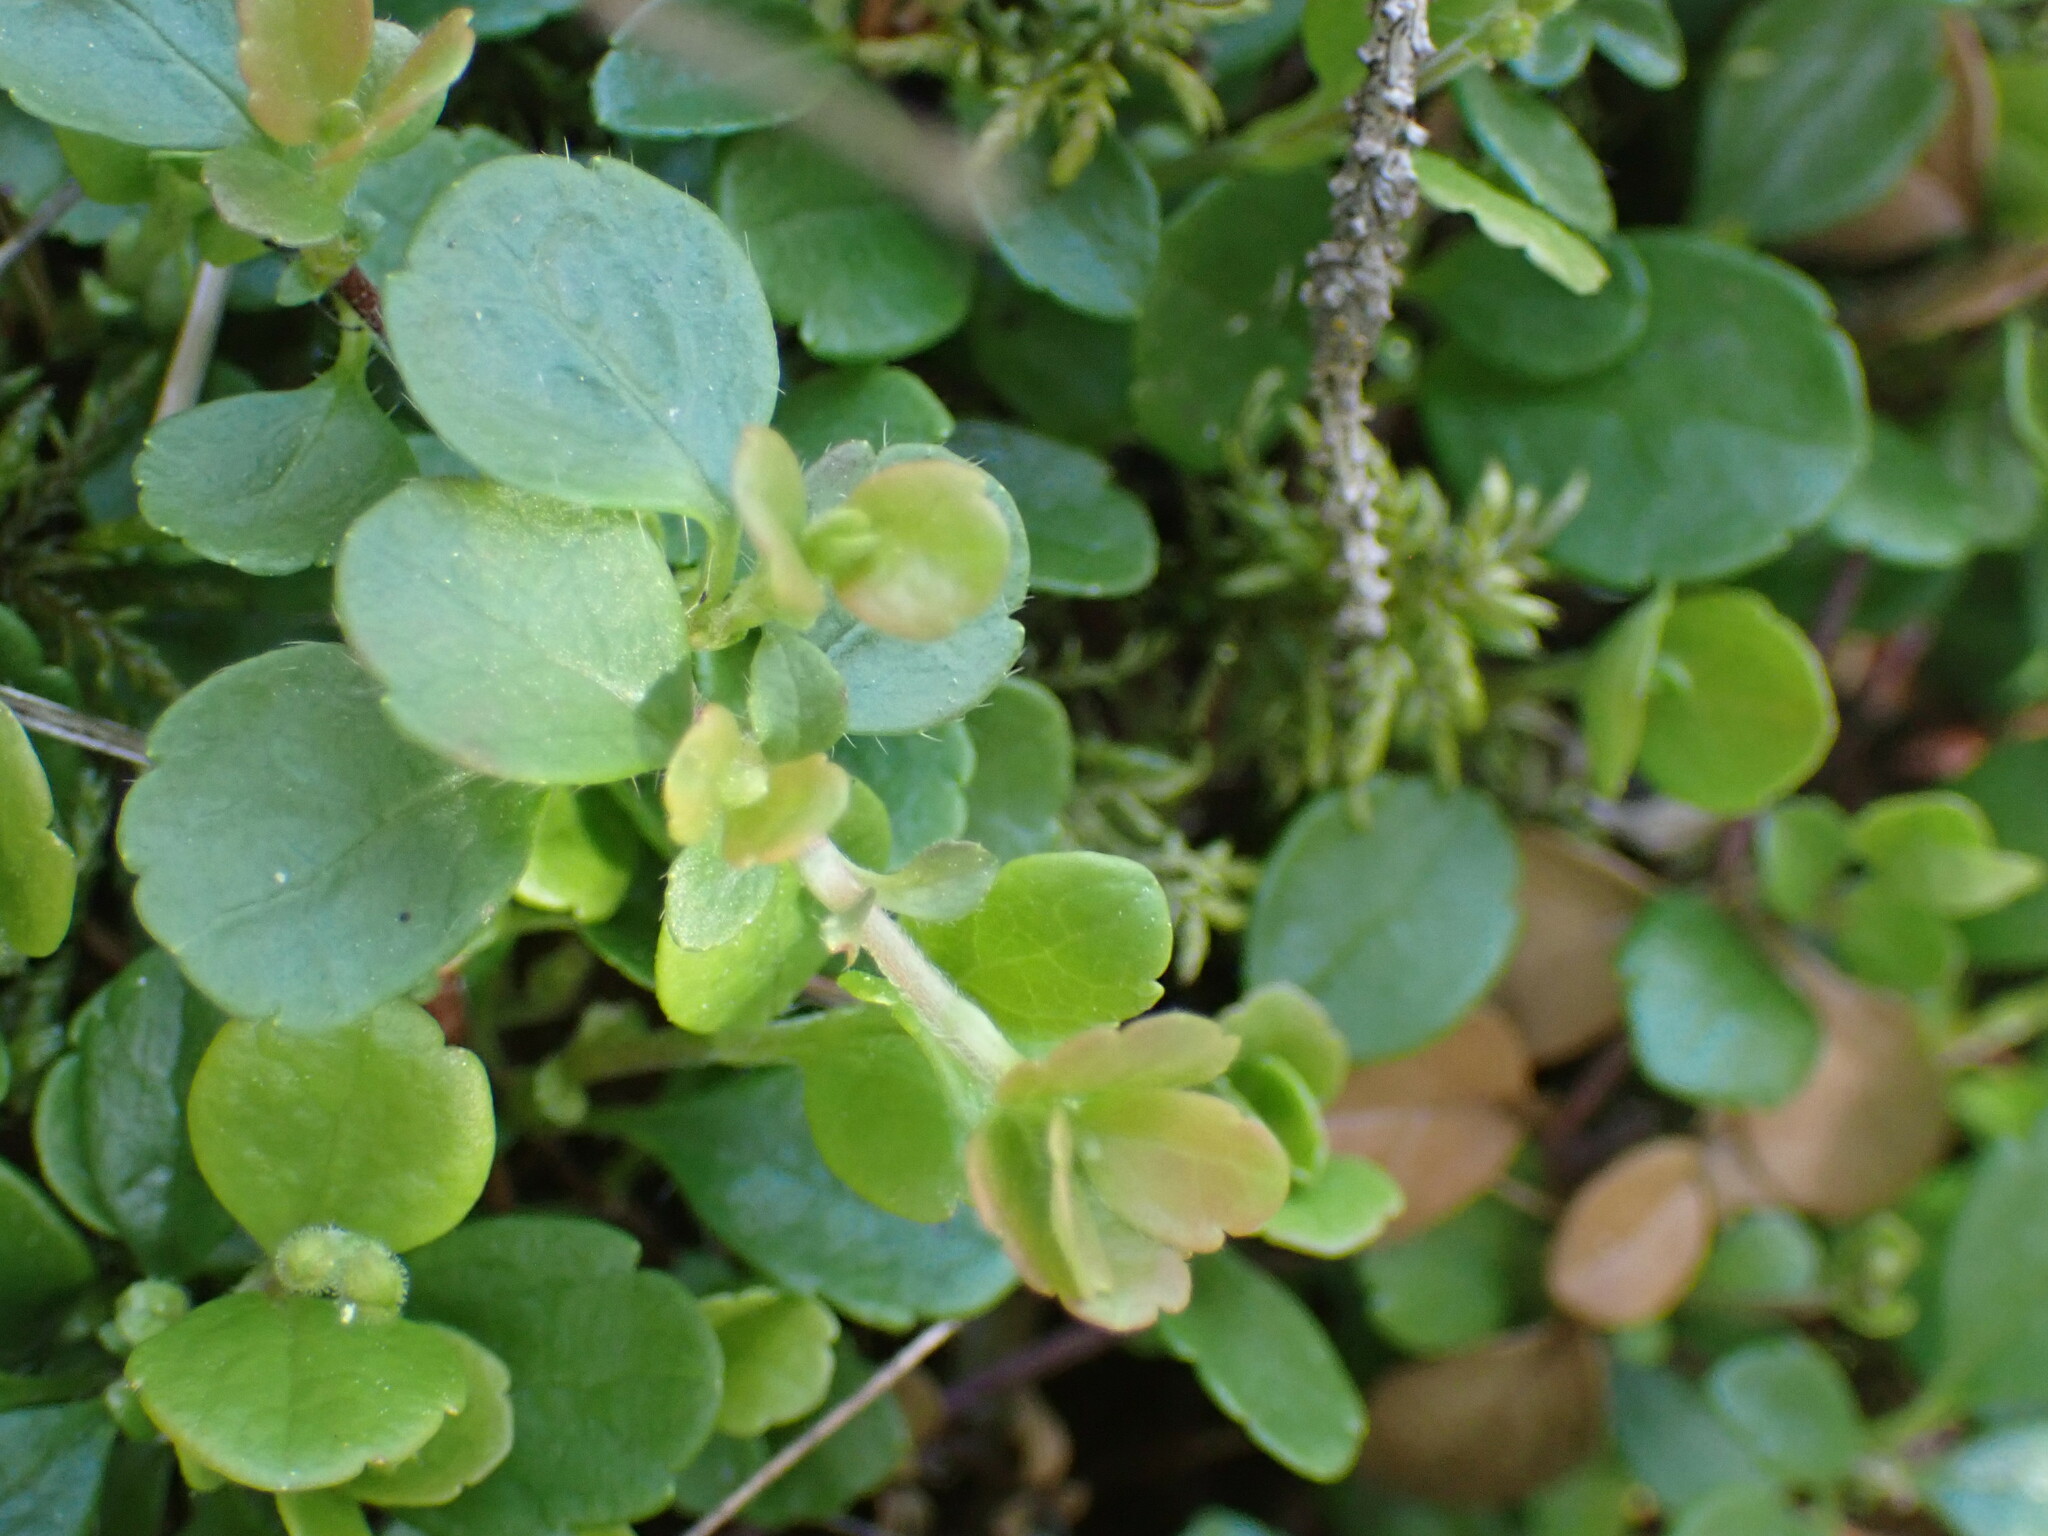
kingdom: Plantae
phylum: Tracheophyta
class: Magnoliopsida
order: Dipsacales
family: Caprifoliaceae
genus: Linnaea
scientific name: Linnaea borealis
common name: Twinflower
